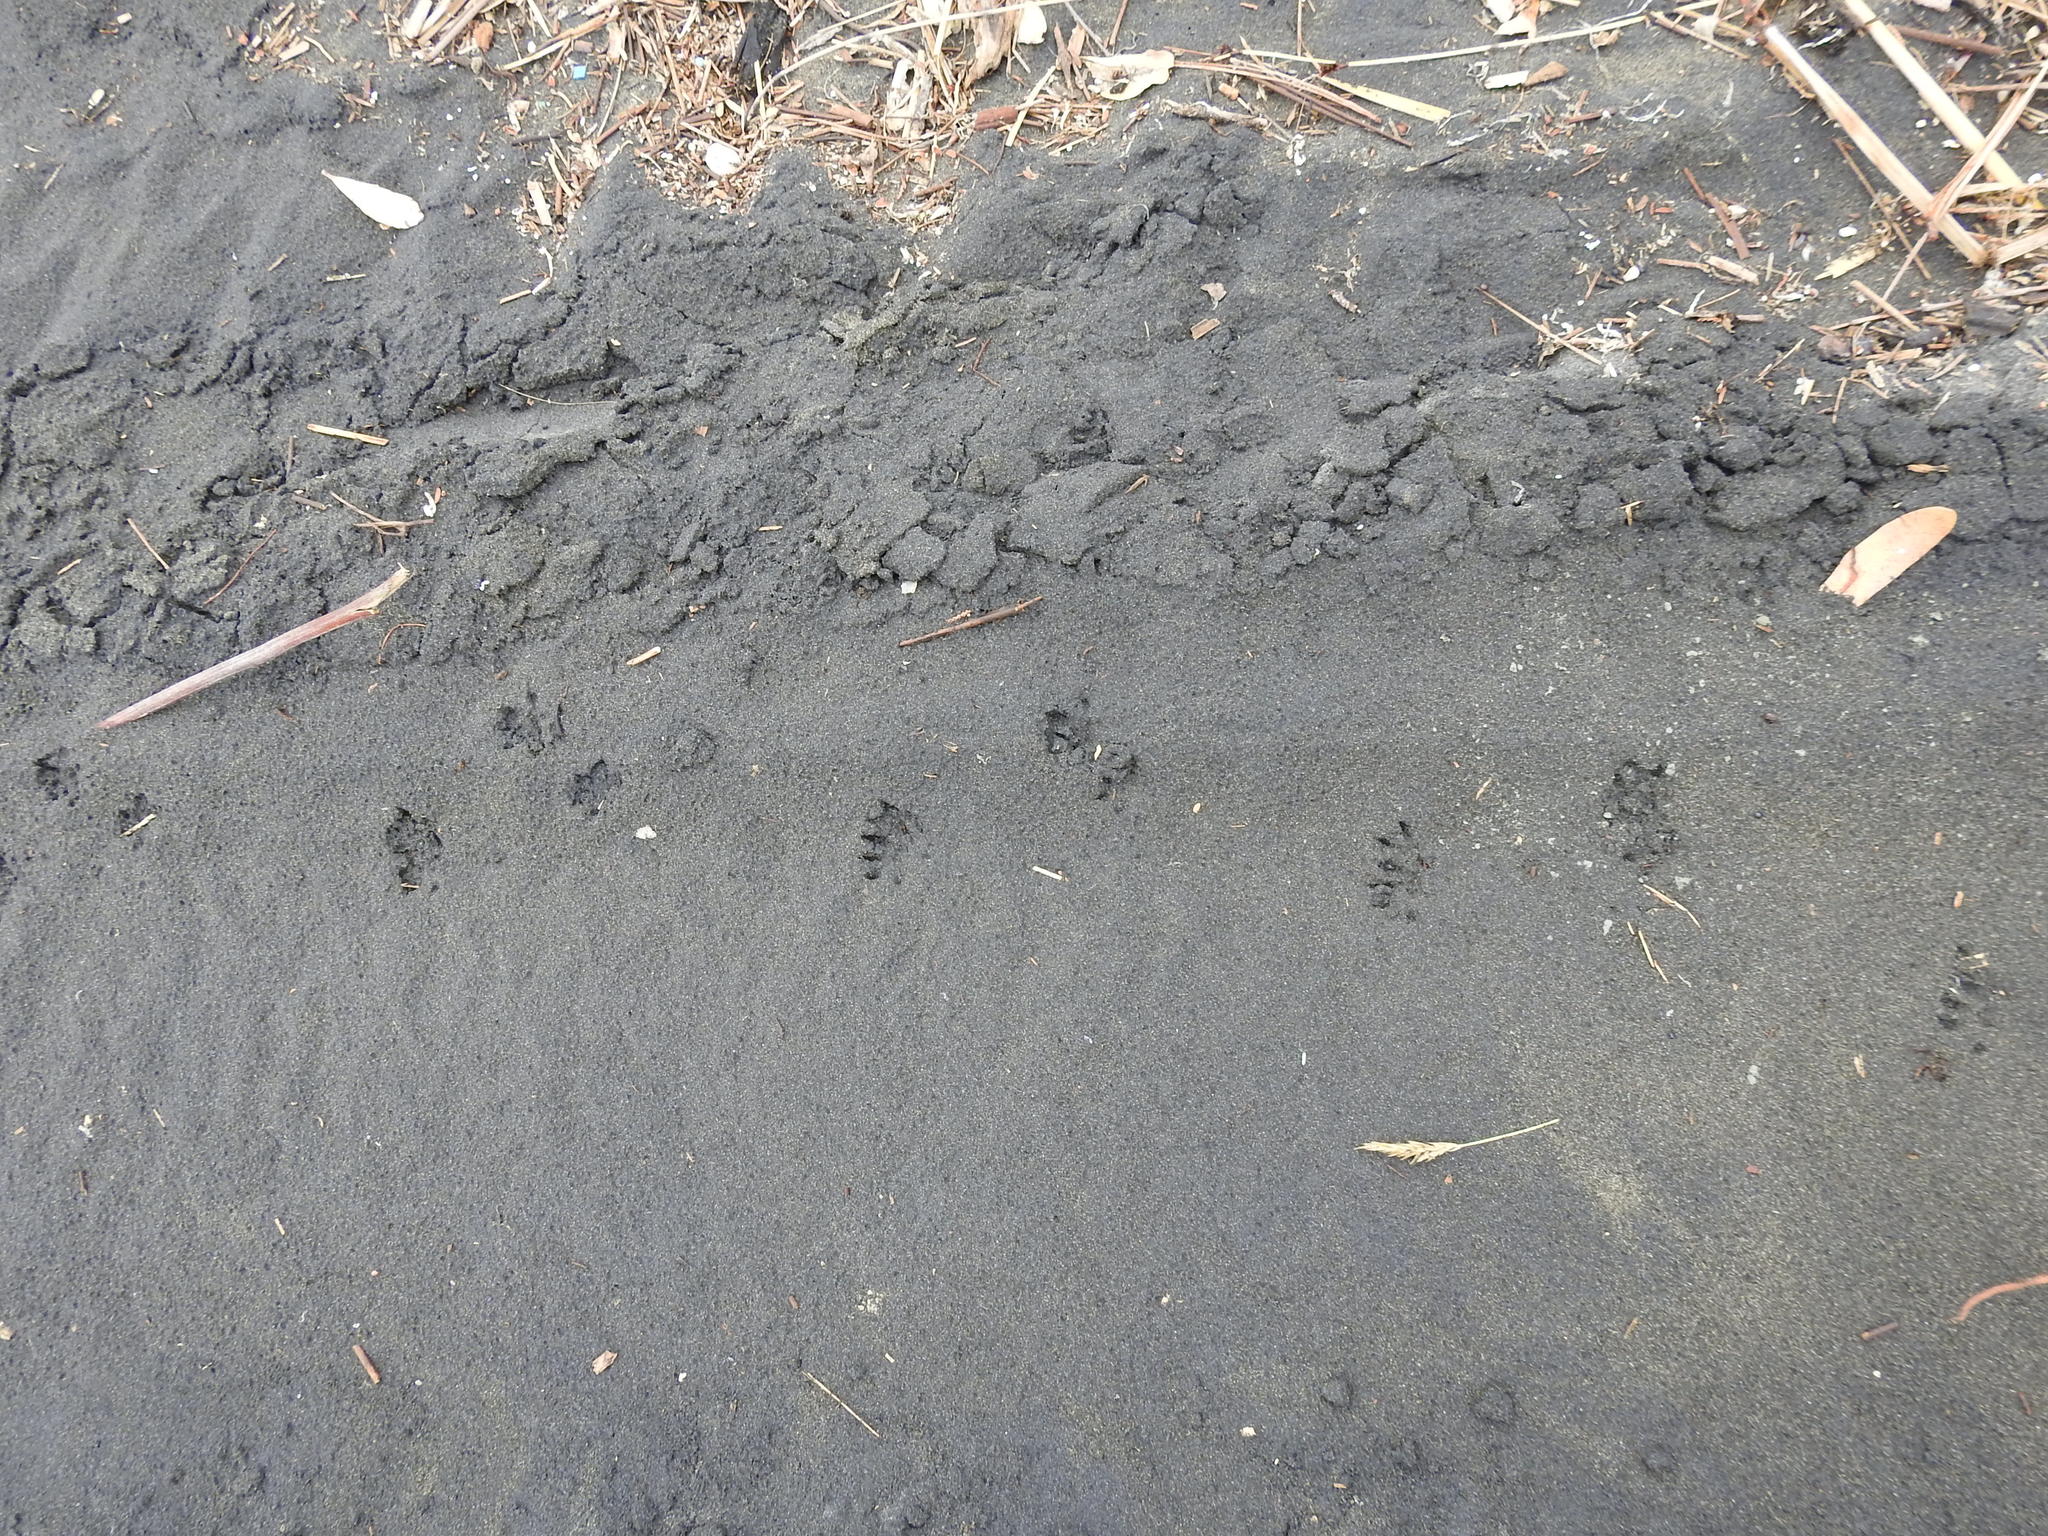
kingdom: Animalia
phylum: Chordata
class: Mammalia
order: Erinaceomorpha
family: Erinaceidae
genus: Erinaceus
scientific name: Erinaceus europaeus
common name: West european hedgehog
